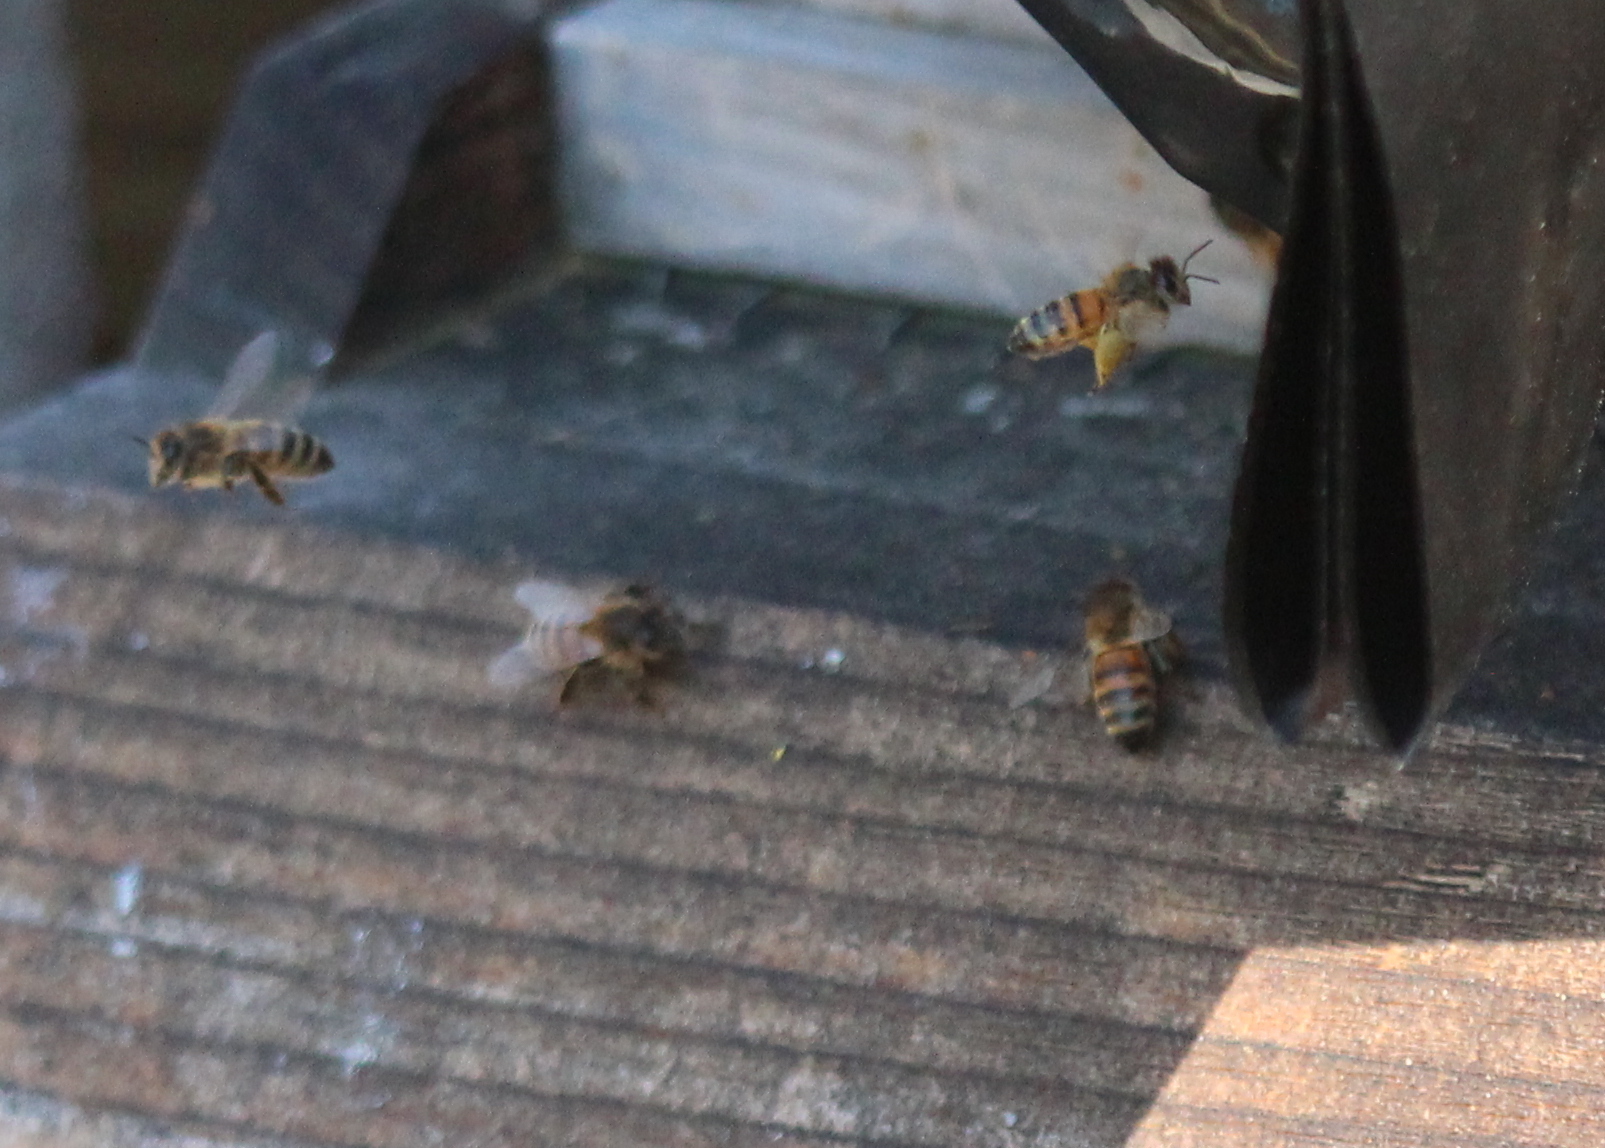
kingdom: Animalia
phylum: Arthropoda
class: Insecta
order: Hymenoptera
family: Apidae
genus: Apis
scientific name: Apis mellifera
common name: Honey bee
